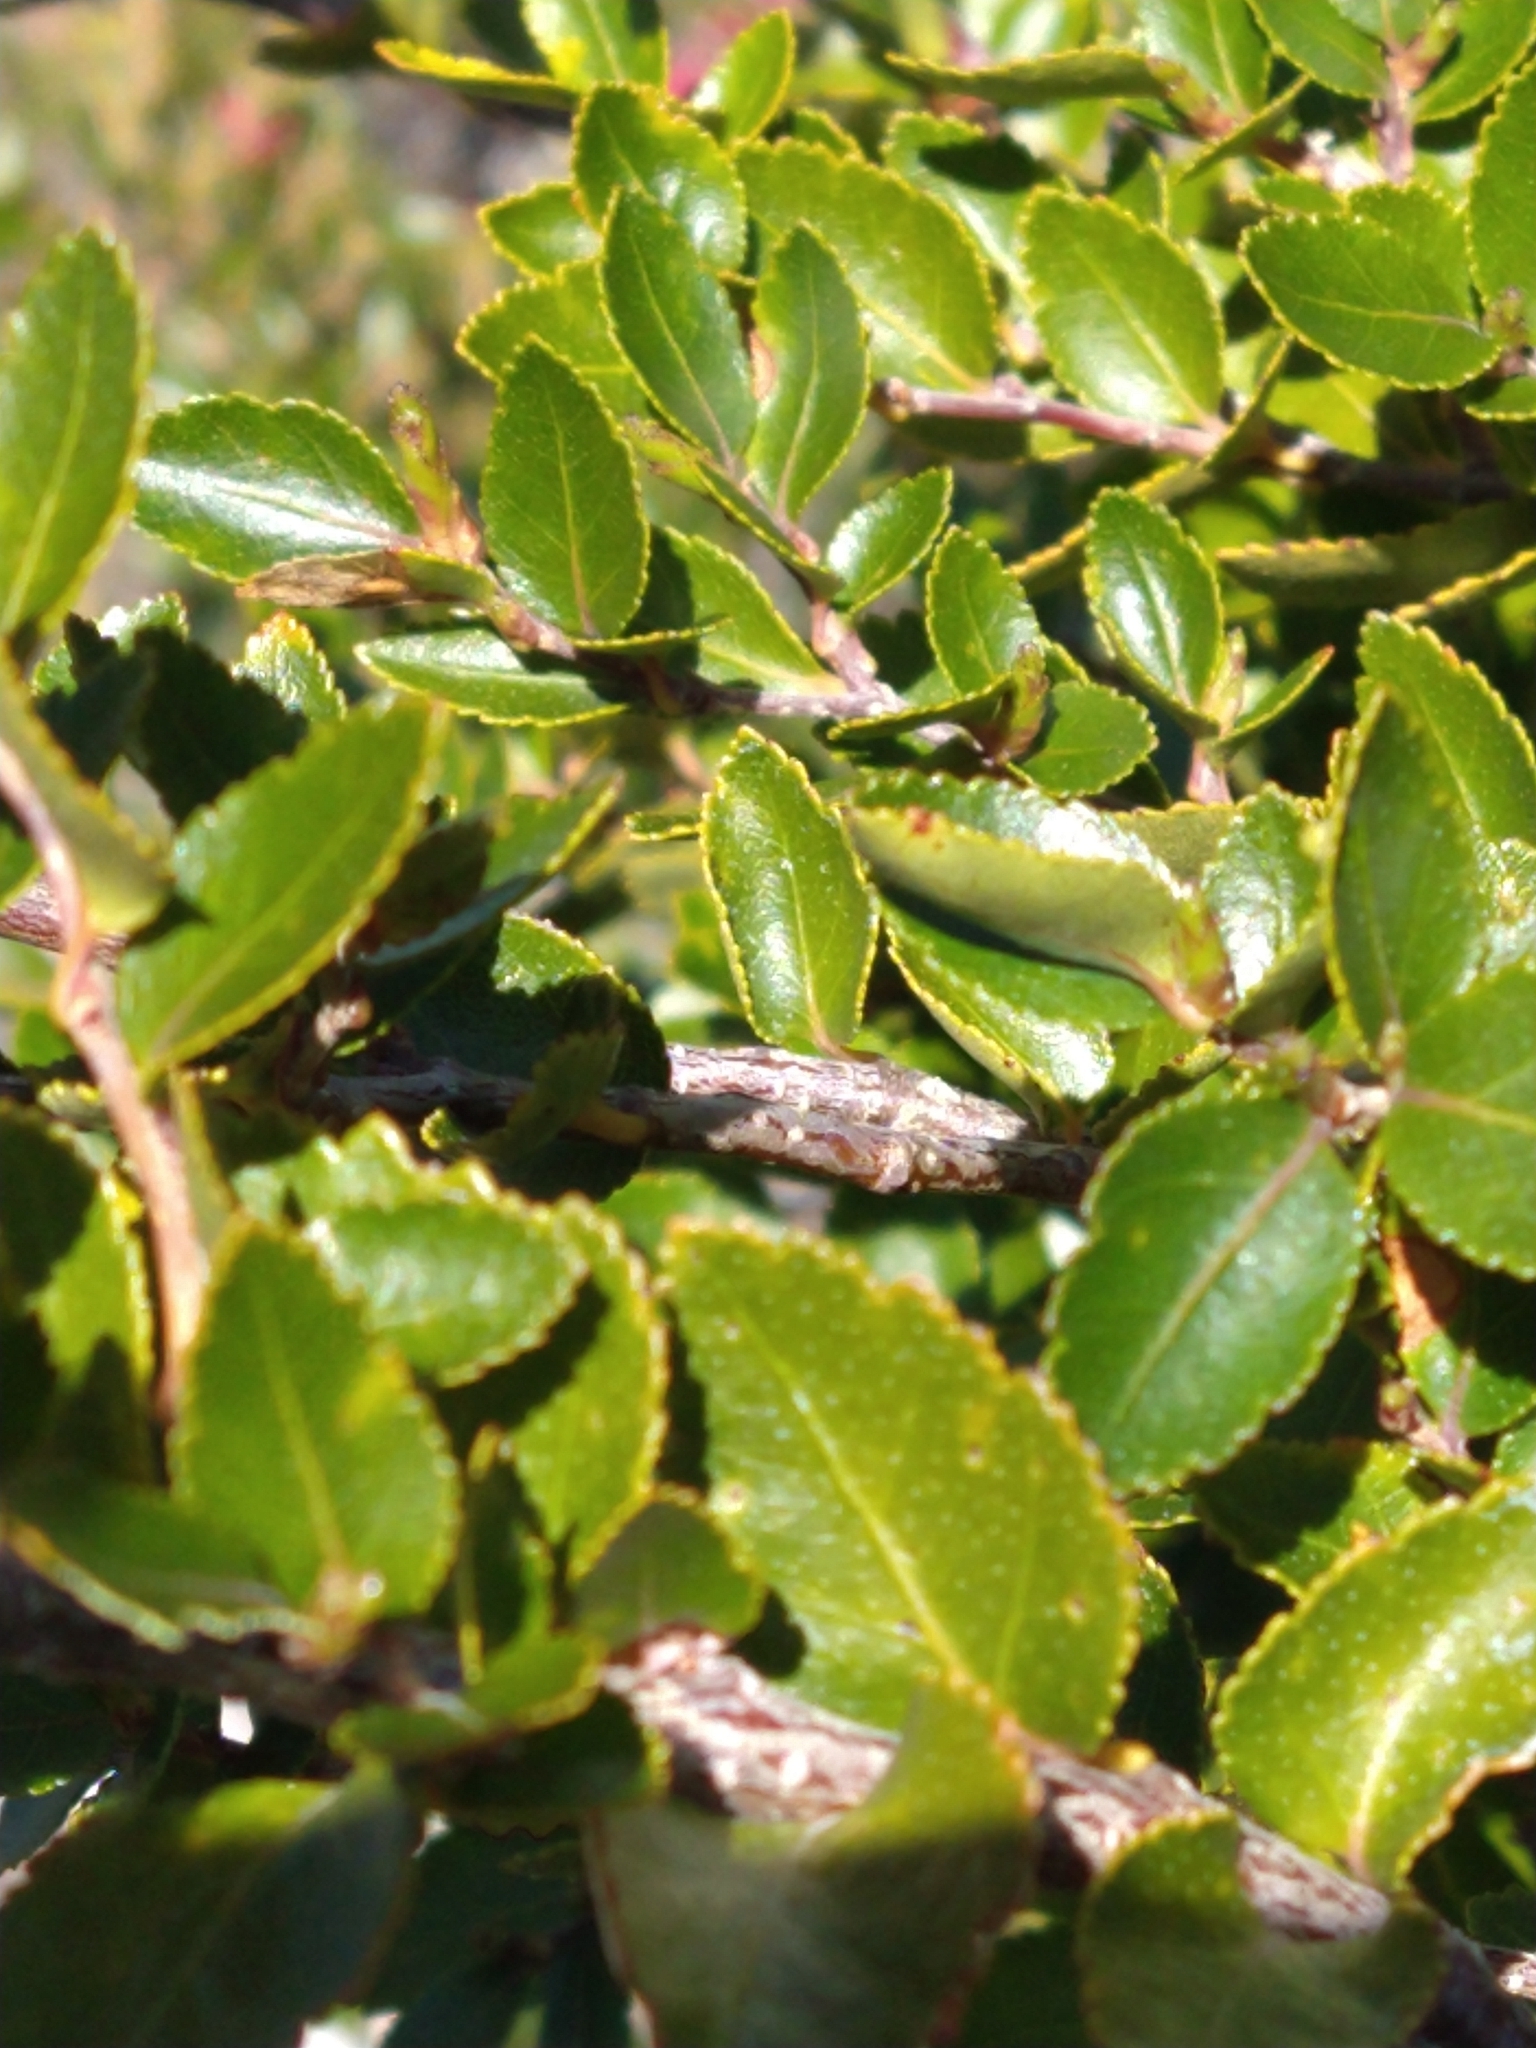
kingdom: Plantae
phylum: Tracheophyta
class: Magnoliopsida
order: Fagales
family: Nothofagaceae
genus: Nothofagus
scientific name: Nothofagus betuloides
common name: Magellan's beech
